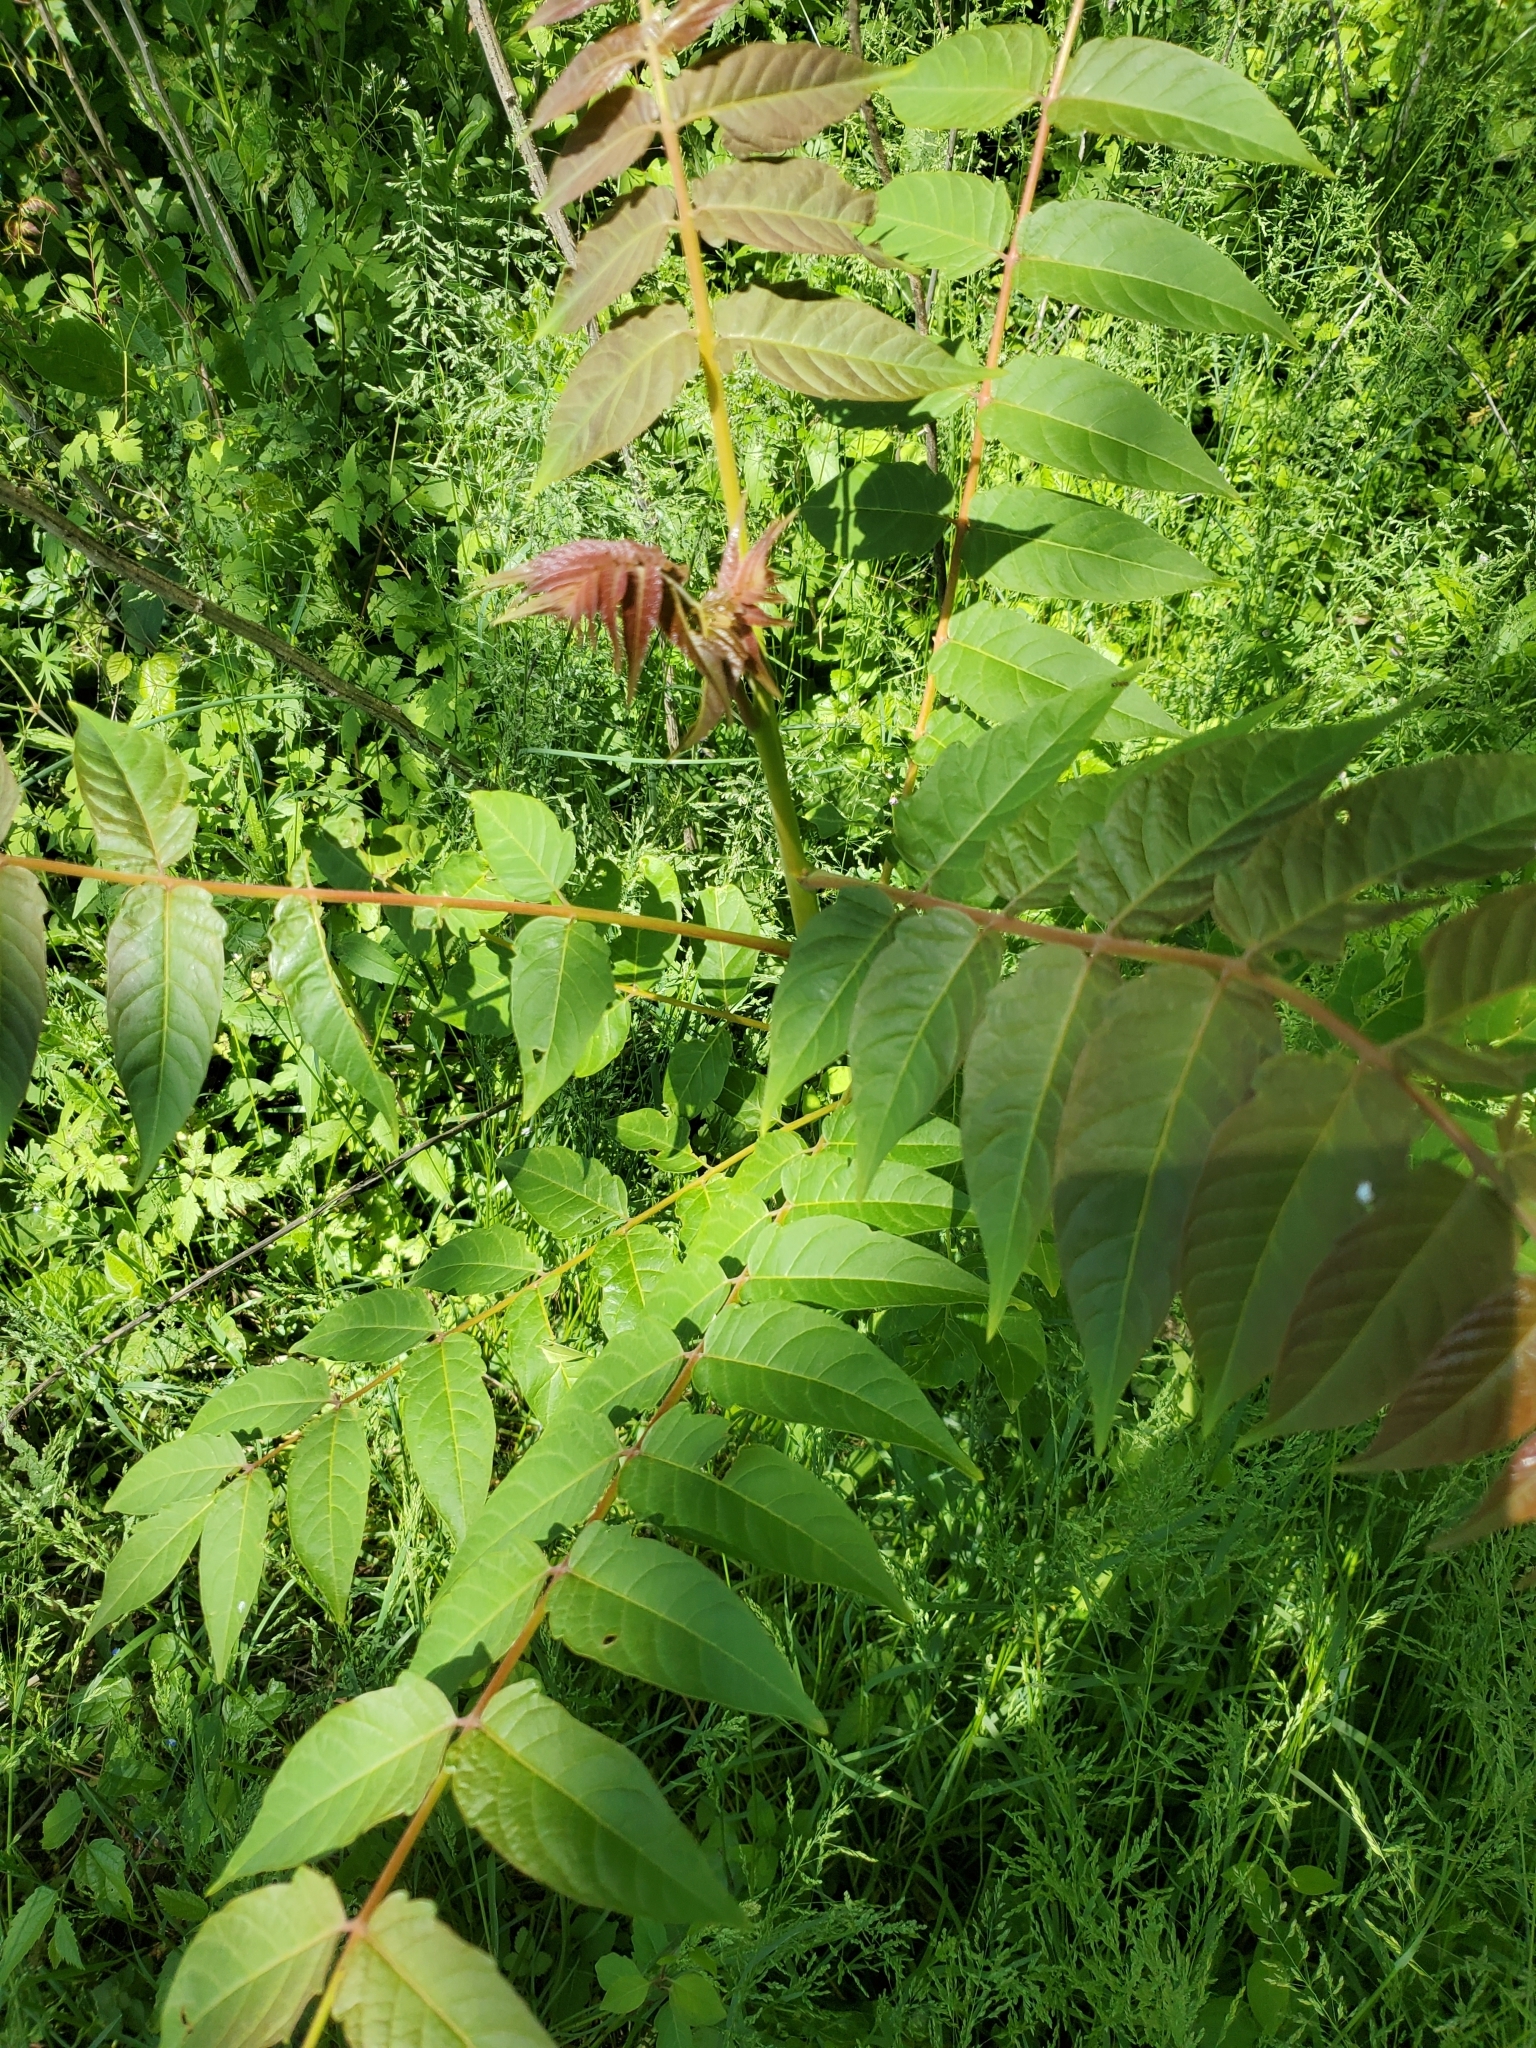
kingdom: Plantae
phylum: Tracheophyta
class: Magnoliopsida
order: Sapindales
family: Simaroubaceae
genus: Ailanthus
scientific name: Ailanthus altissima
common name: Tree-of-heaven
